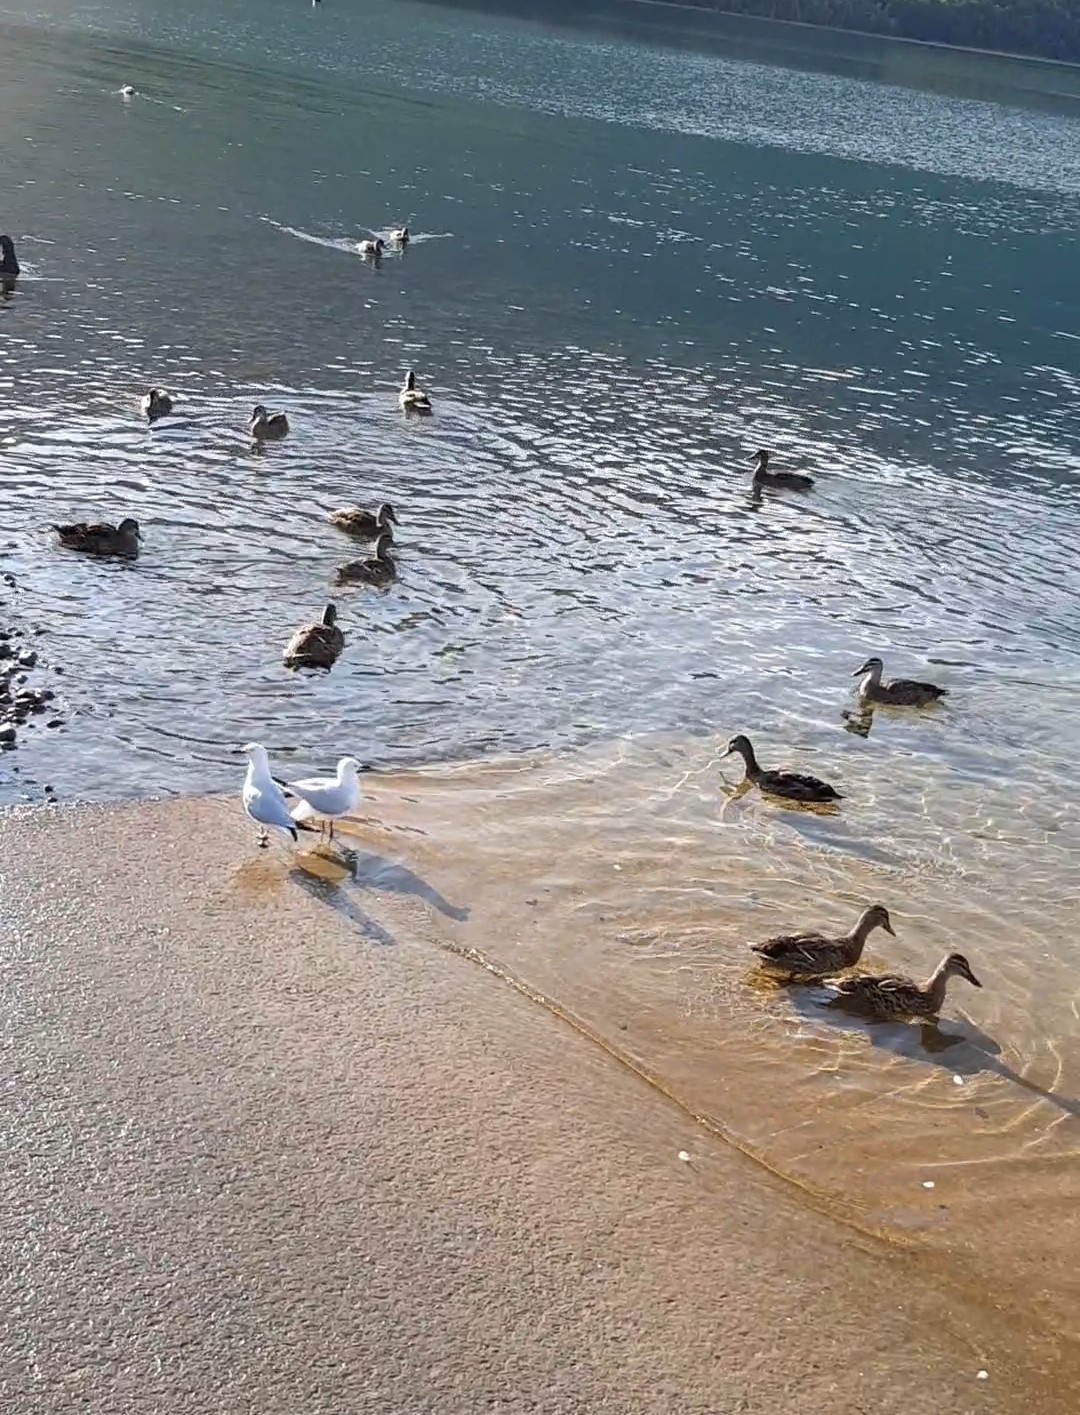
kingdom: Animalia
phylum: Chordata
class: Aves
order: Charadriiformes
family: Laridae
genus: Chroicocephalus
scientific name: Chroicocephalus bulleri
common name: Black-billed gull
